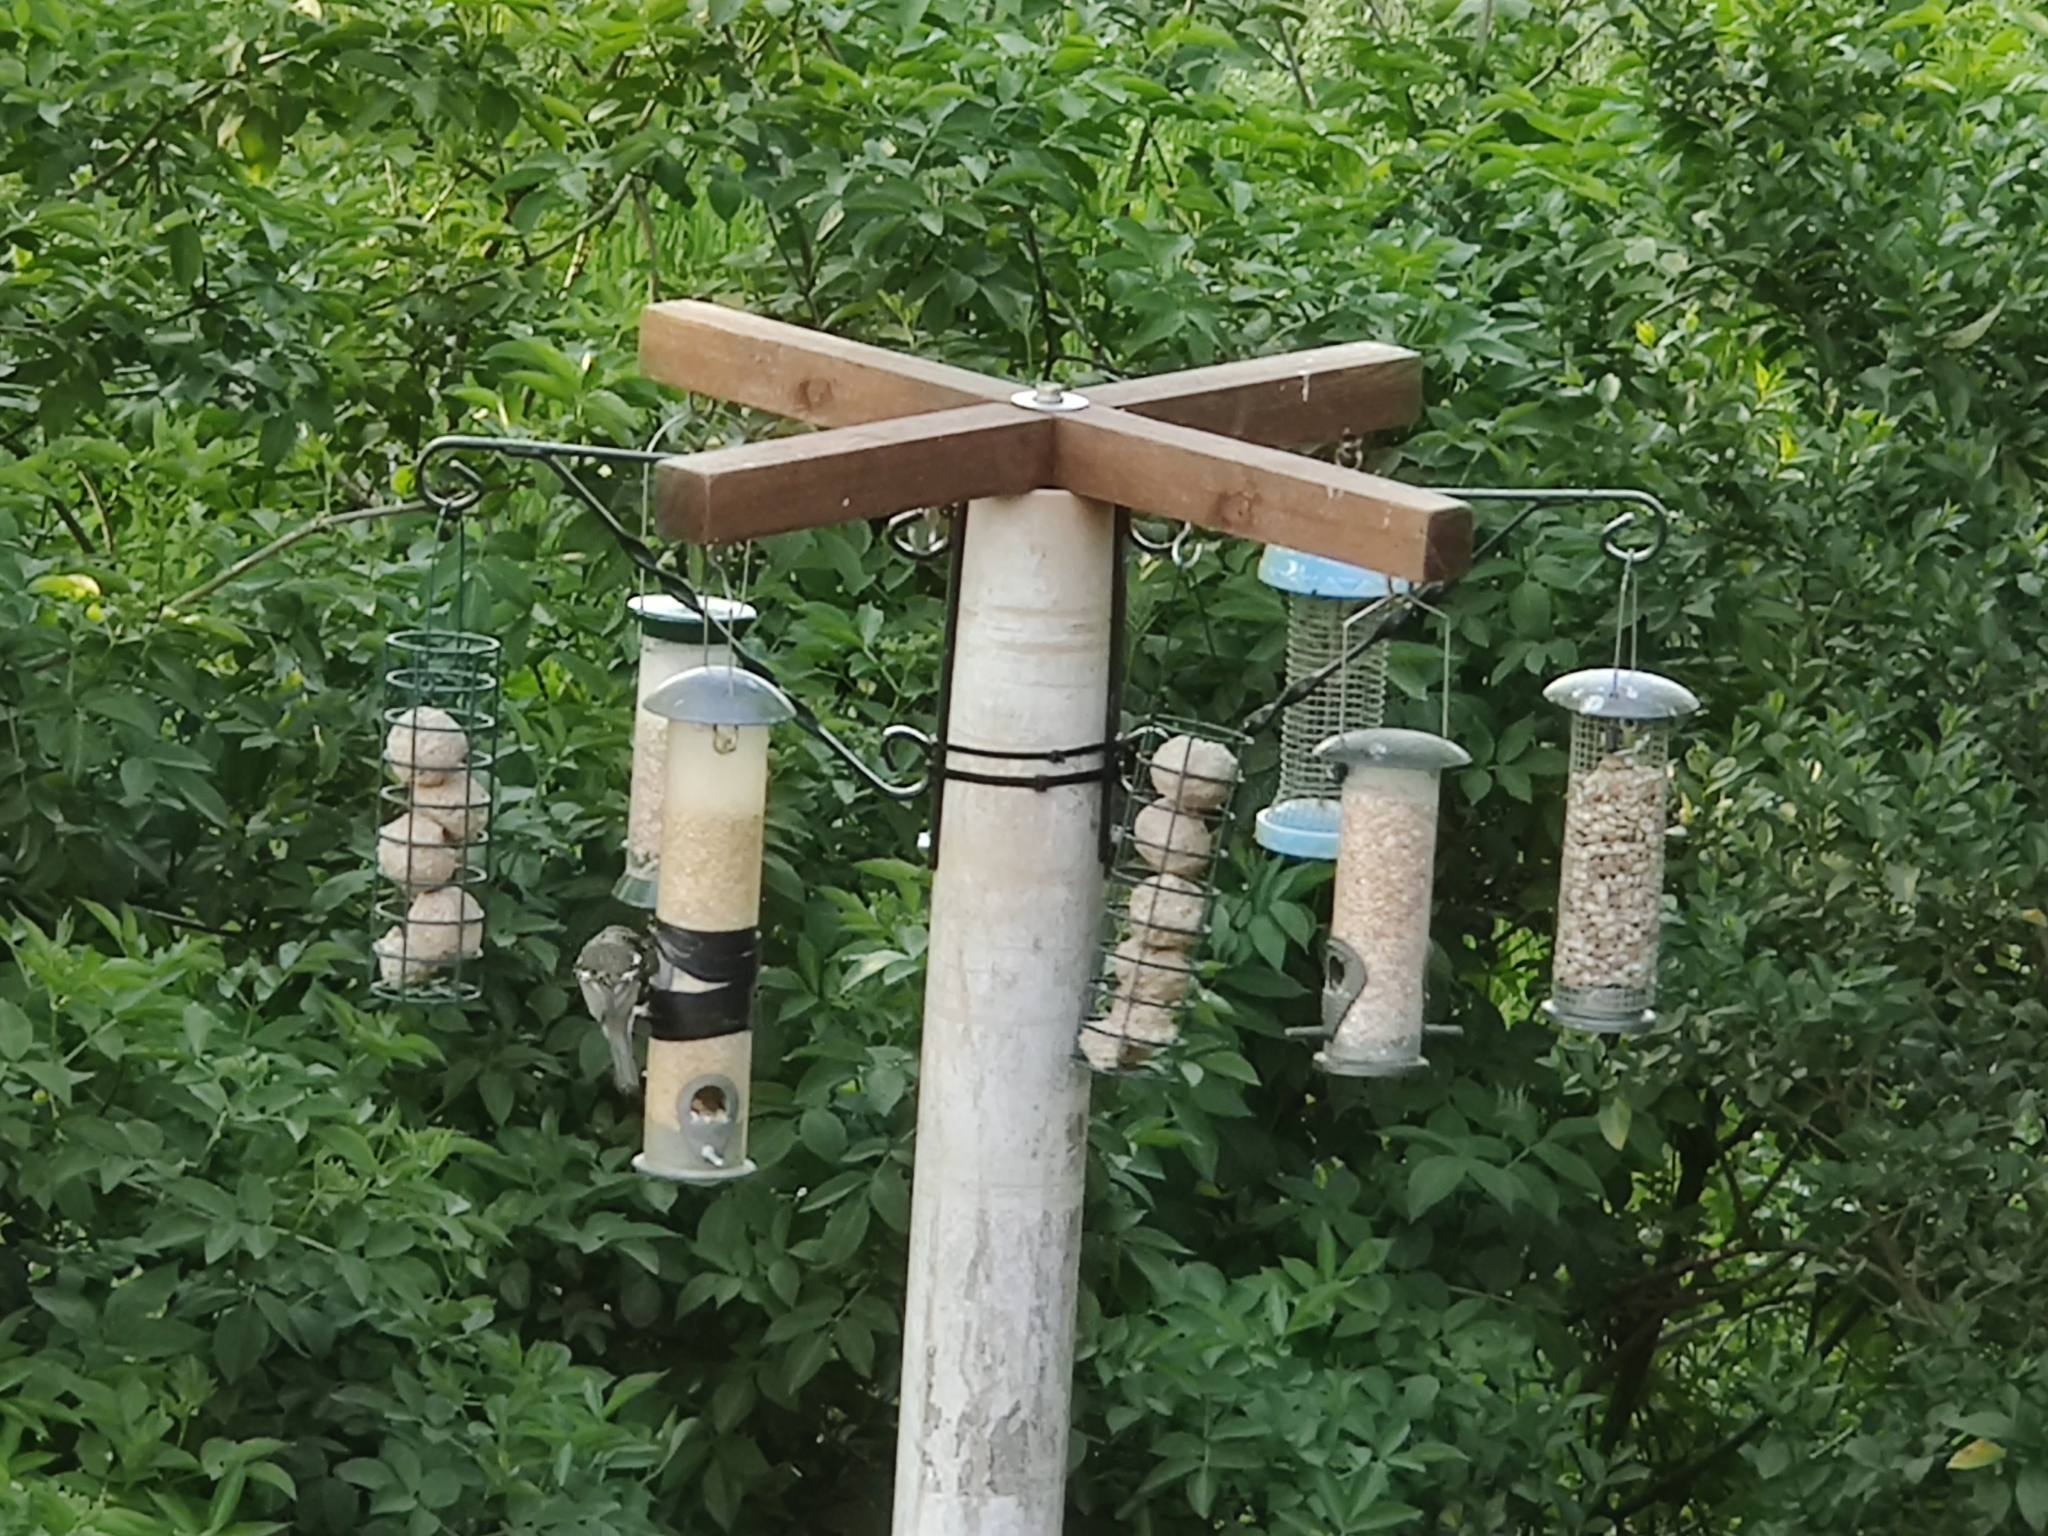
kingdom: Animalia
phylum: Chordata
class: Aves
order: Passeriformes
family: Fringillidae
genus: Fringilla
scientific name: Fringilla coelebs
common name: Common chaffinch
